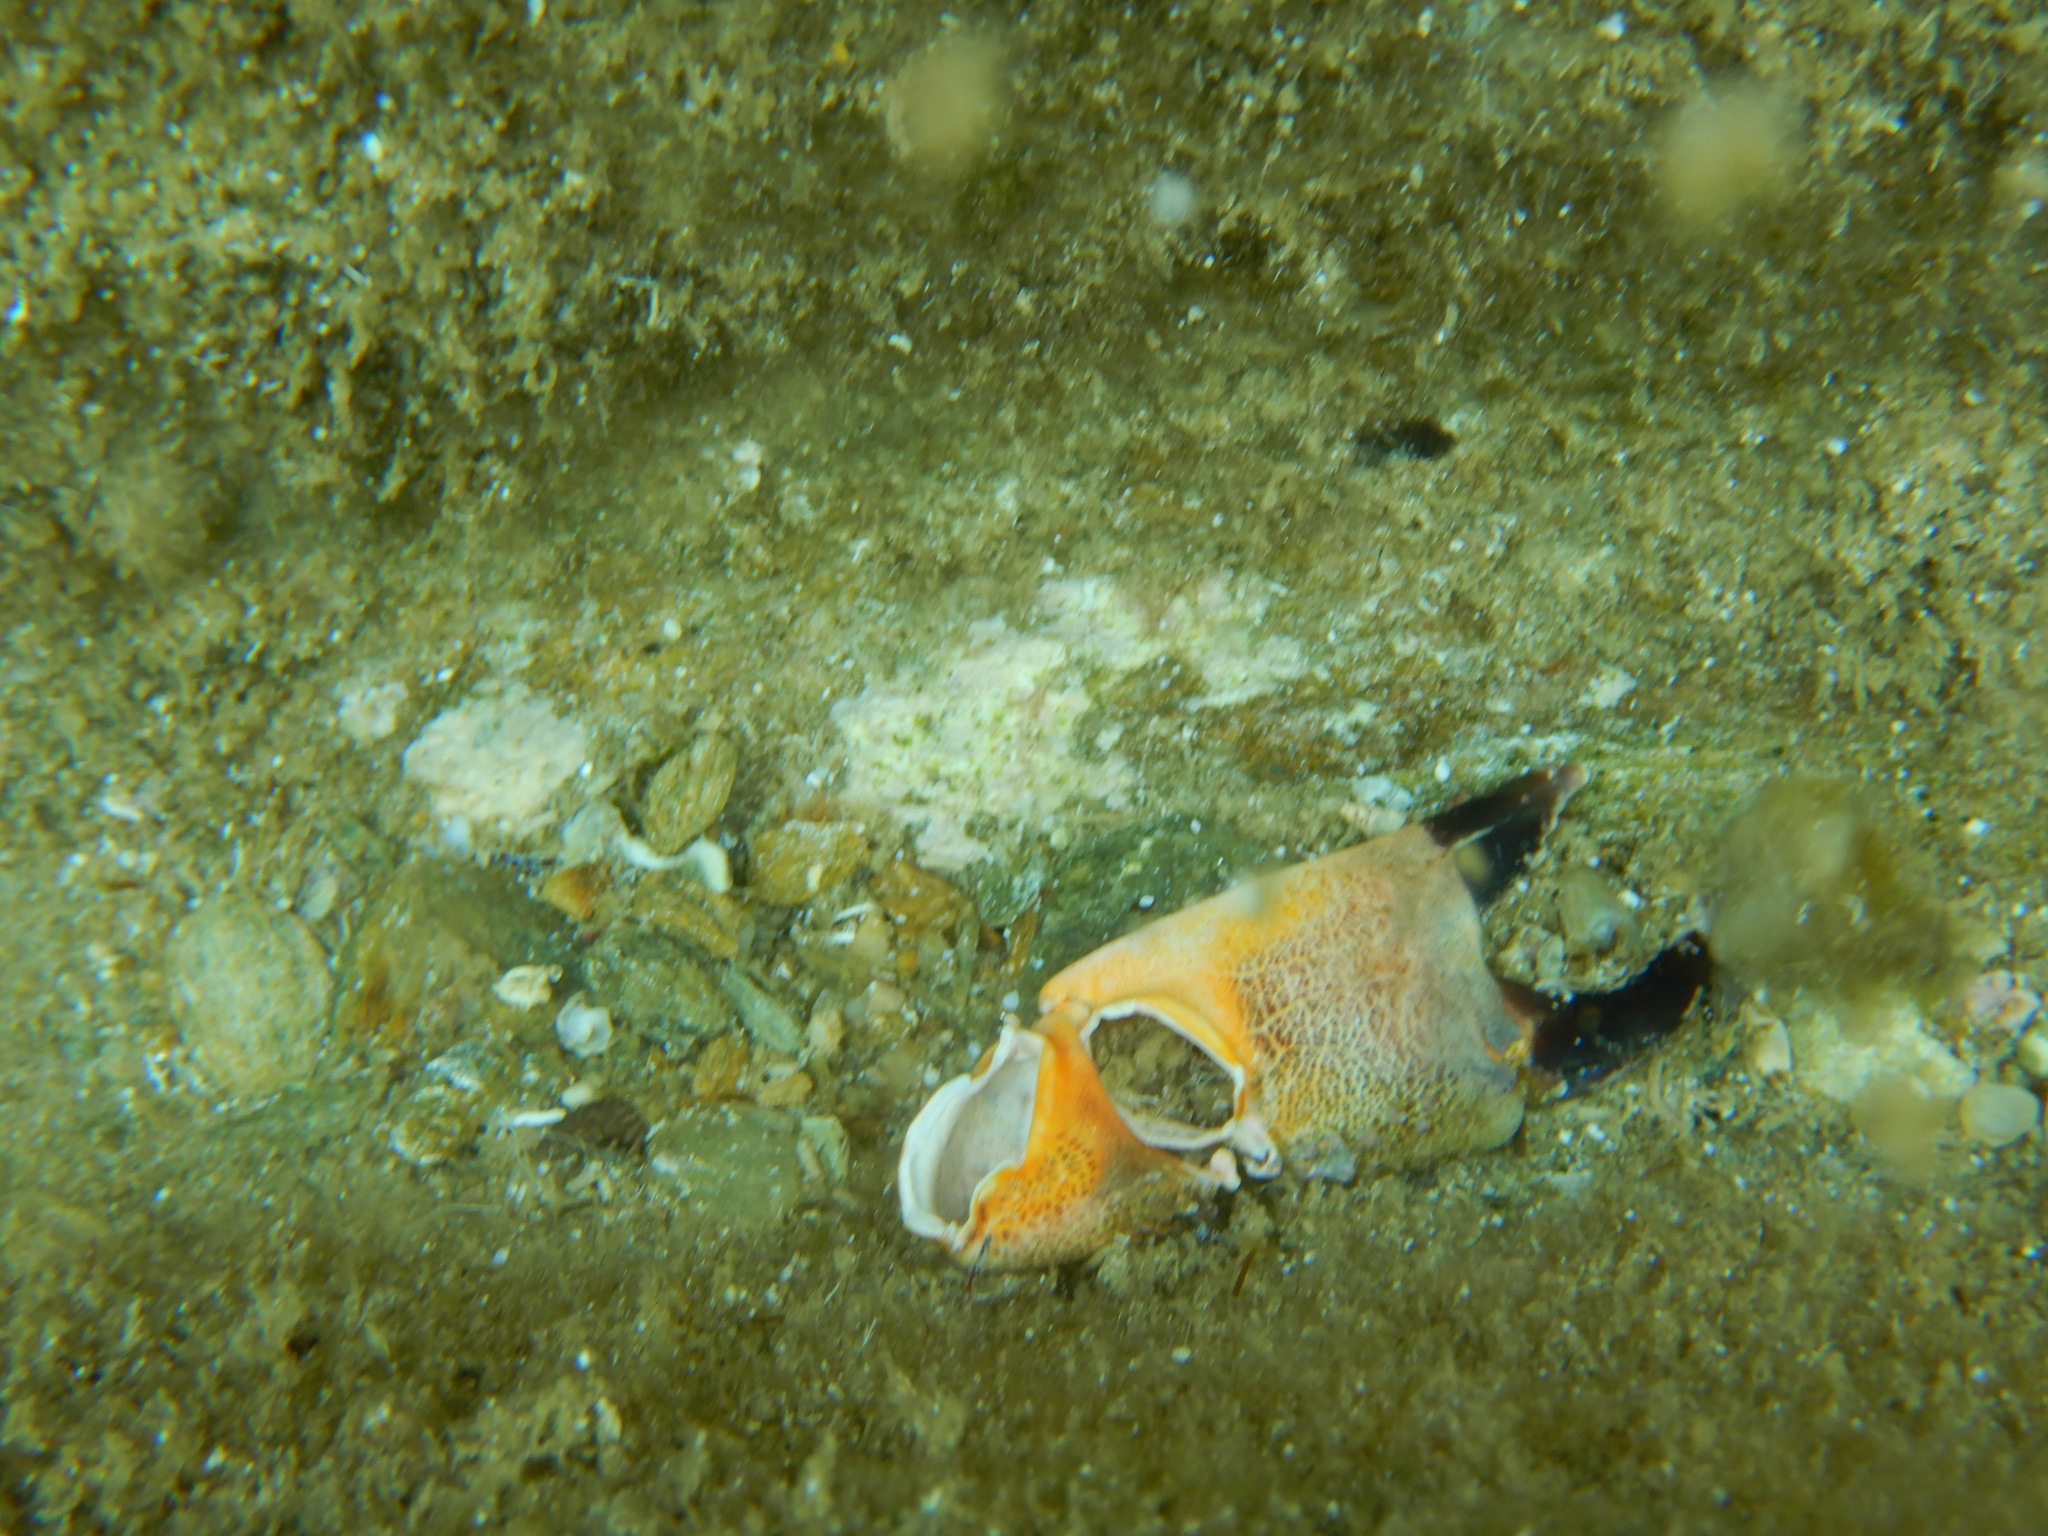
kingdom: Animalia
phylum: Arthropoda
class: Malacostraca
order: Decapoda
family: Eriphiidae
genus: Eriphia
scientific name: Eriphia verrucosa
